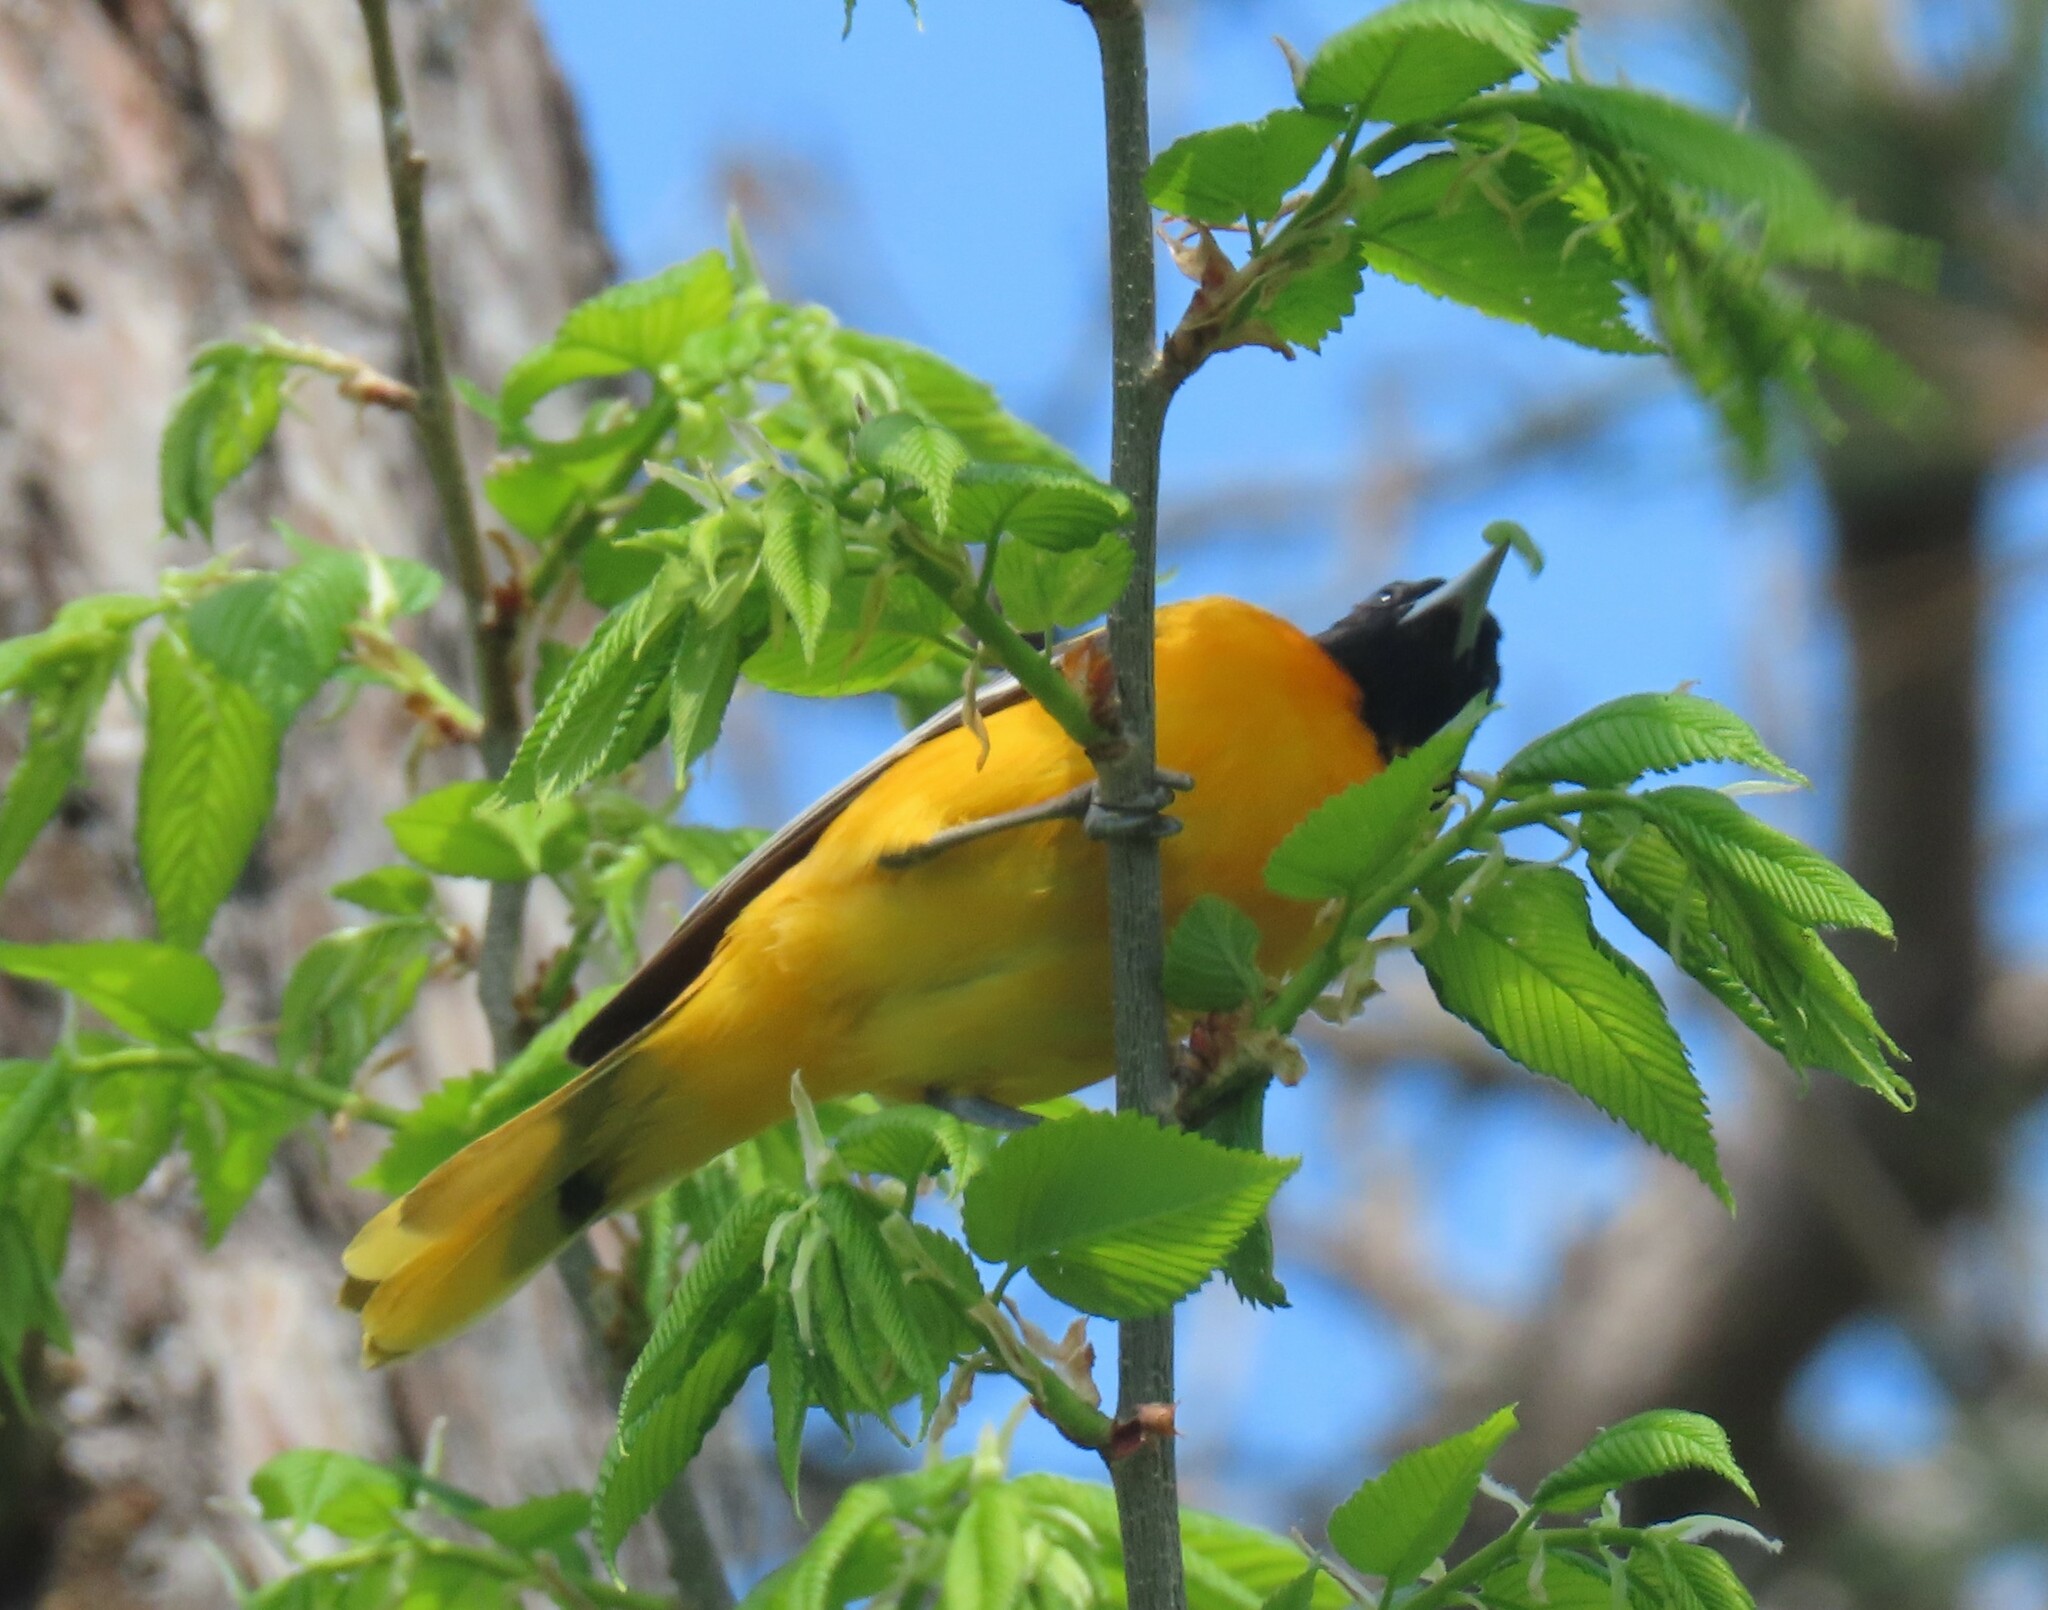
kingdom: Animalia
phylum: Chordata
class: Aves
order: Passeriformes
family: Icteridae
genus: Icterus
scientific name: Icterus galbula
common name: Baltimore oriole
